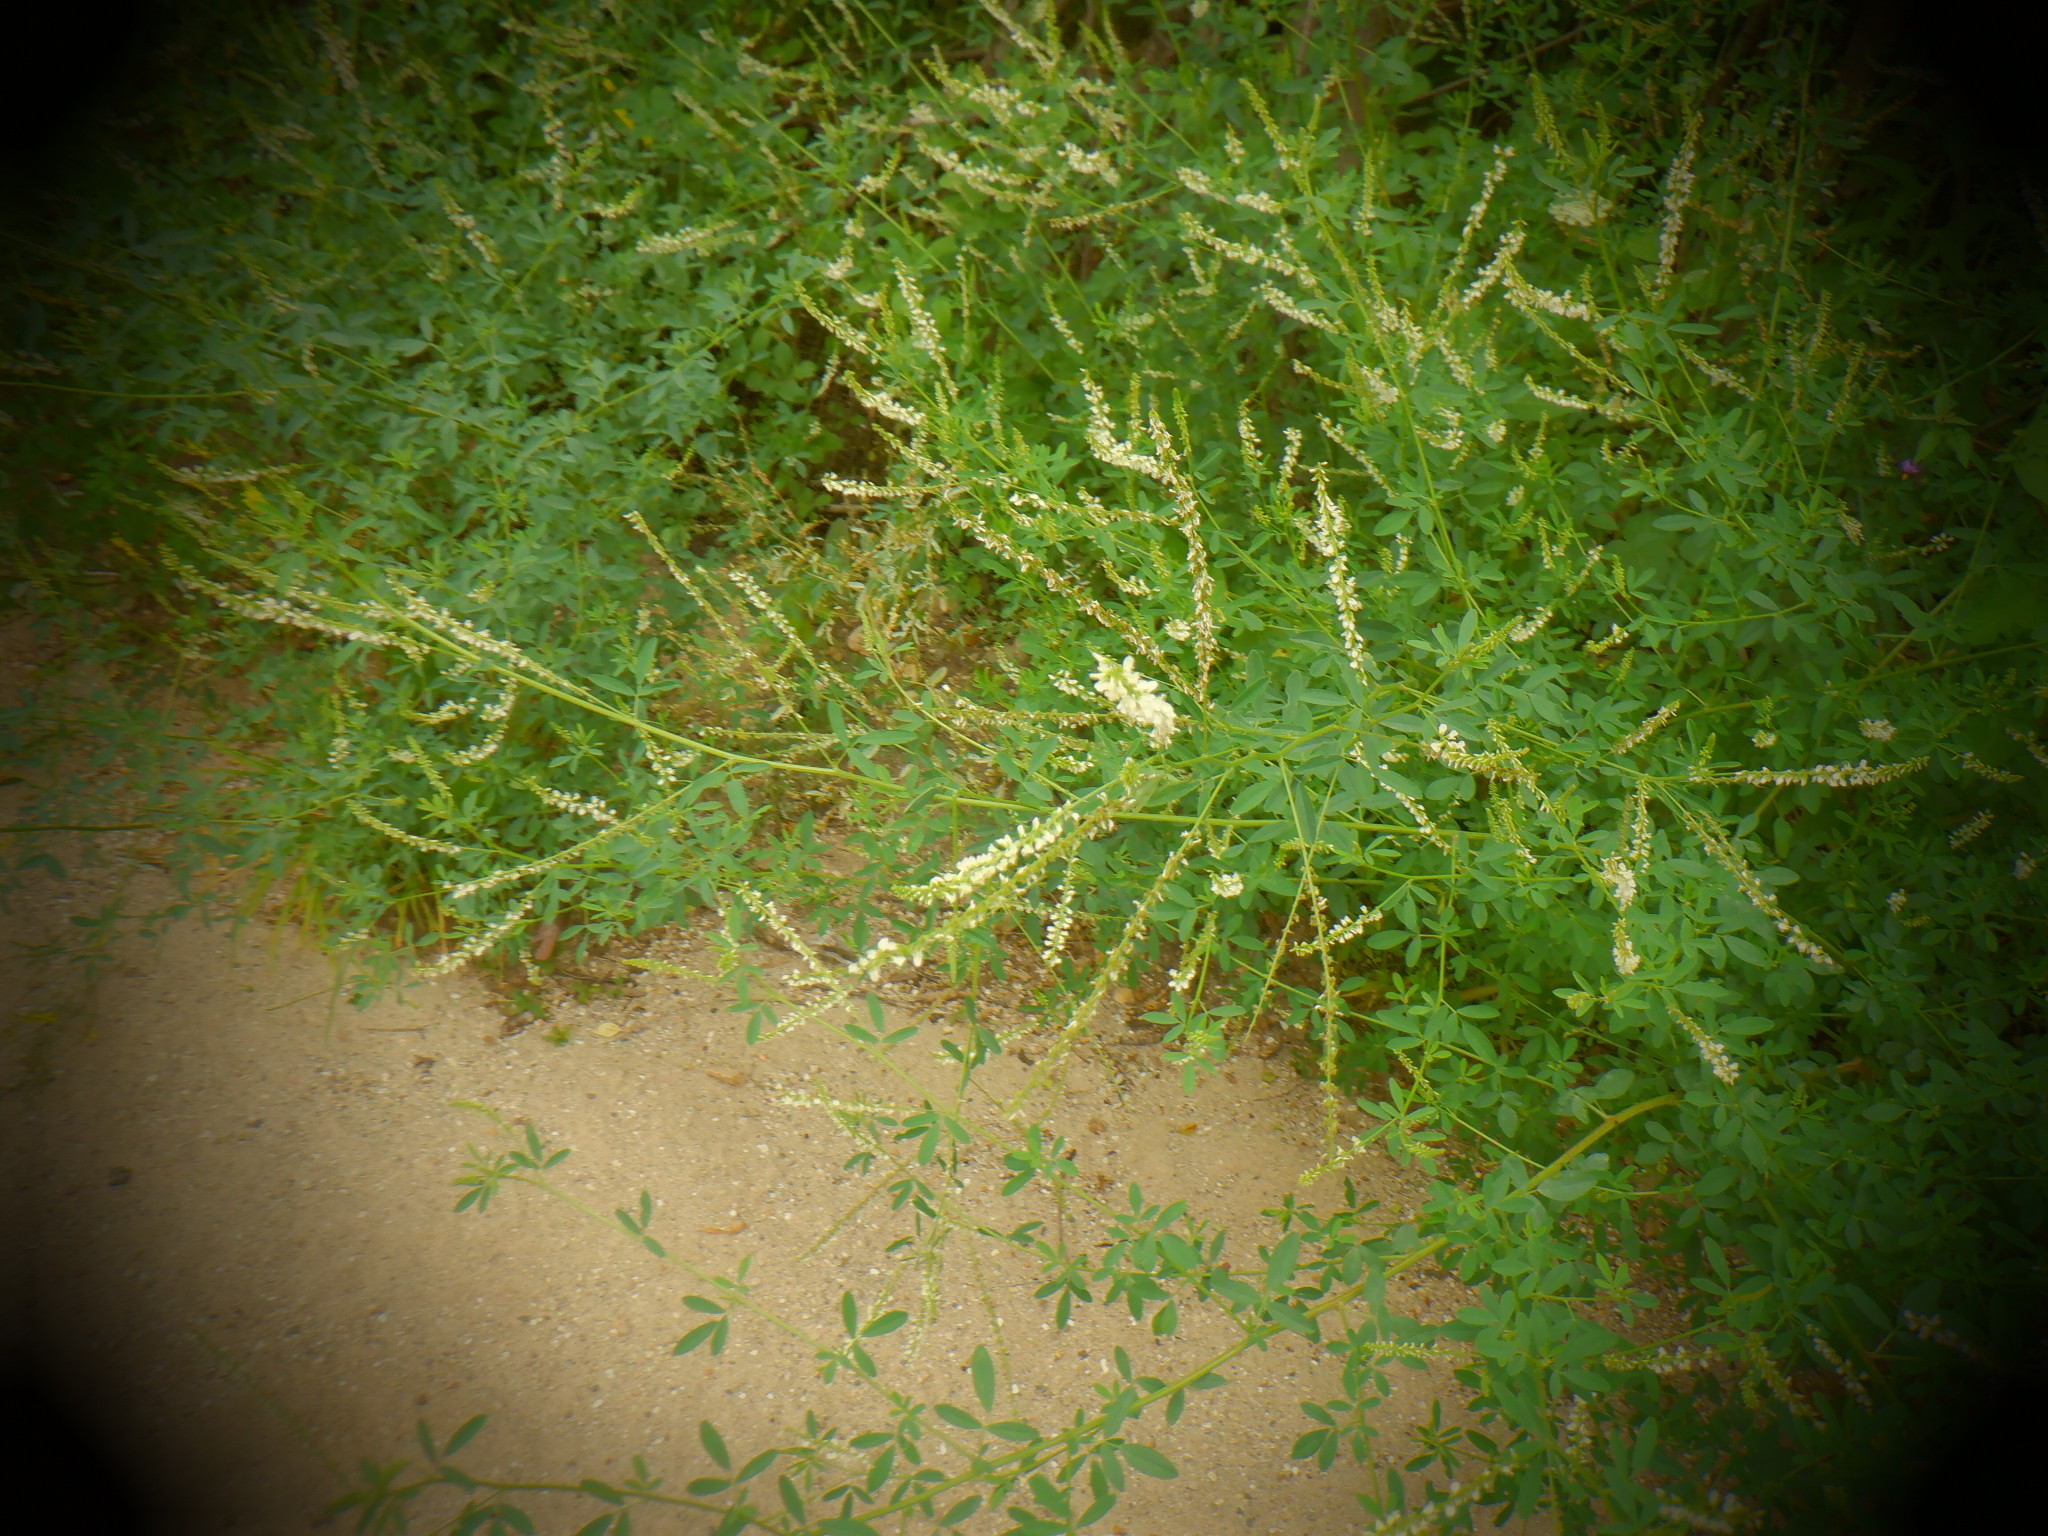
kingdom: Plantae
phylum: Tracheophyta
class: Magnoliopsida
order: Fabales
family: Fabaceae
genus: Melilotus
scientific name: Melilotus albus
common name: White melilot
